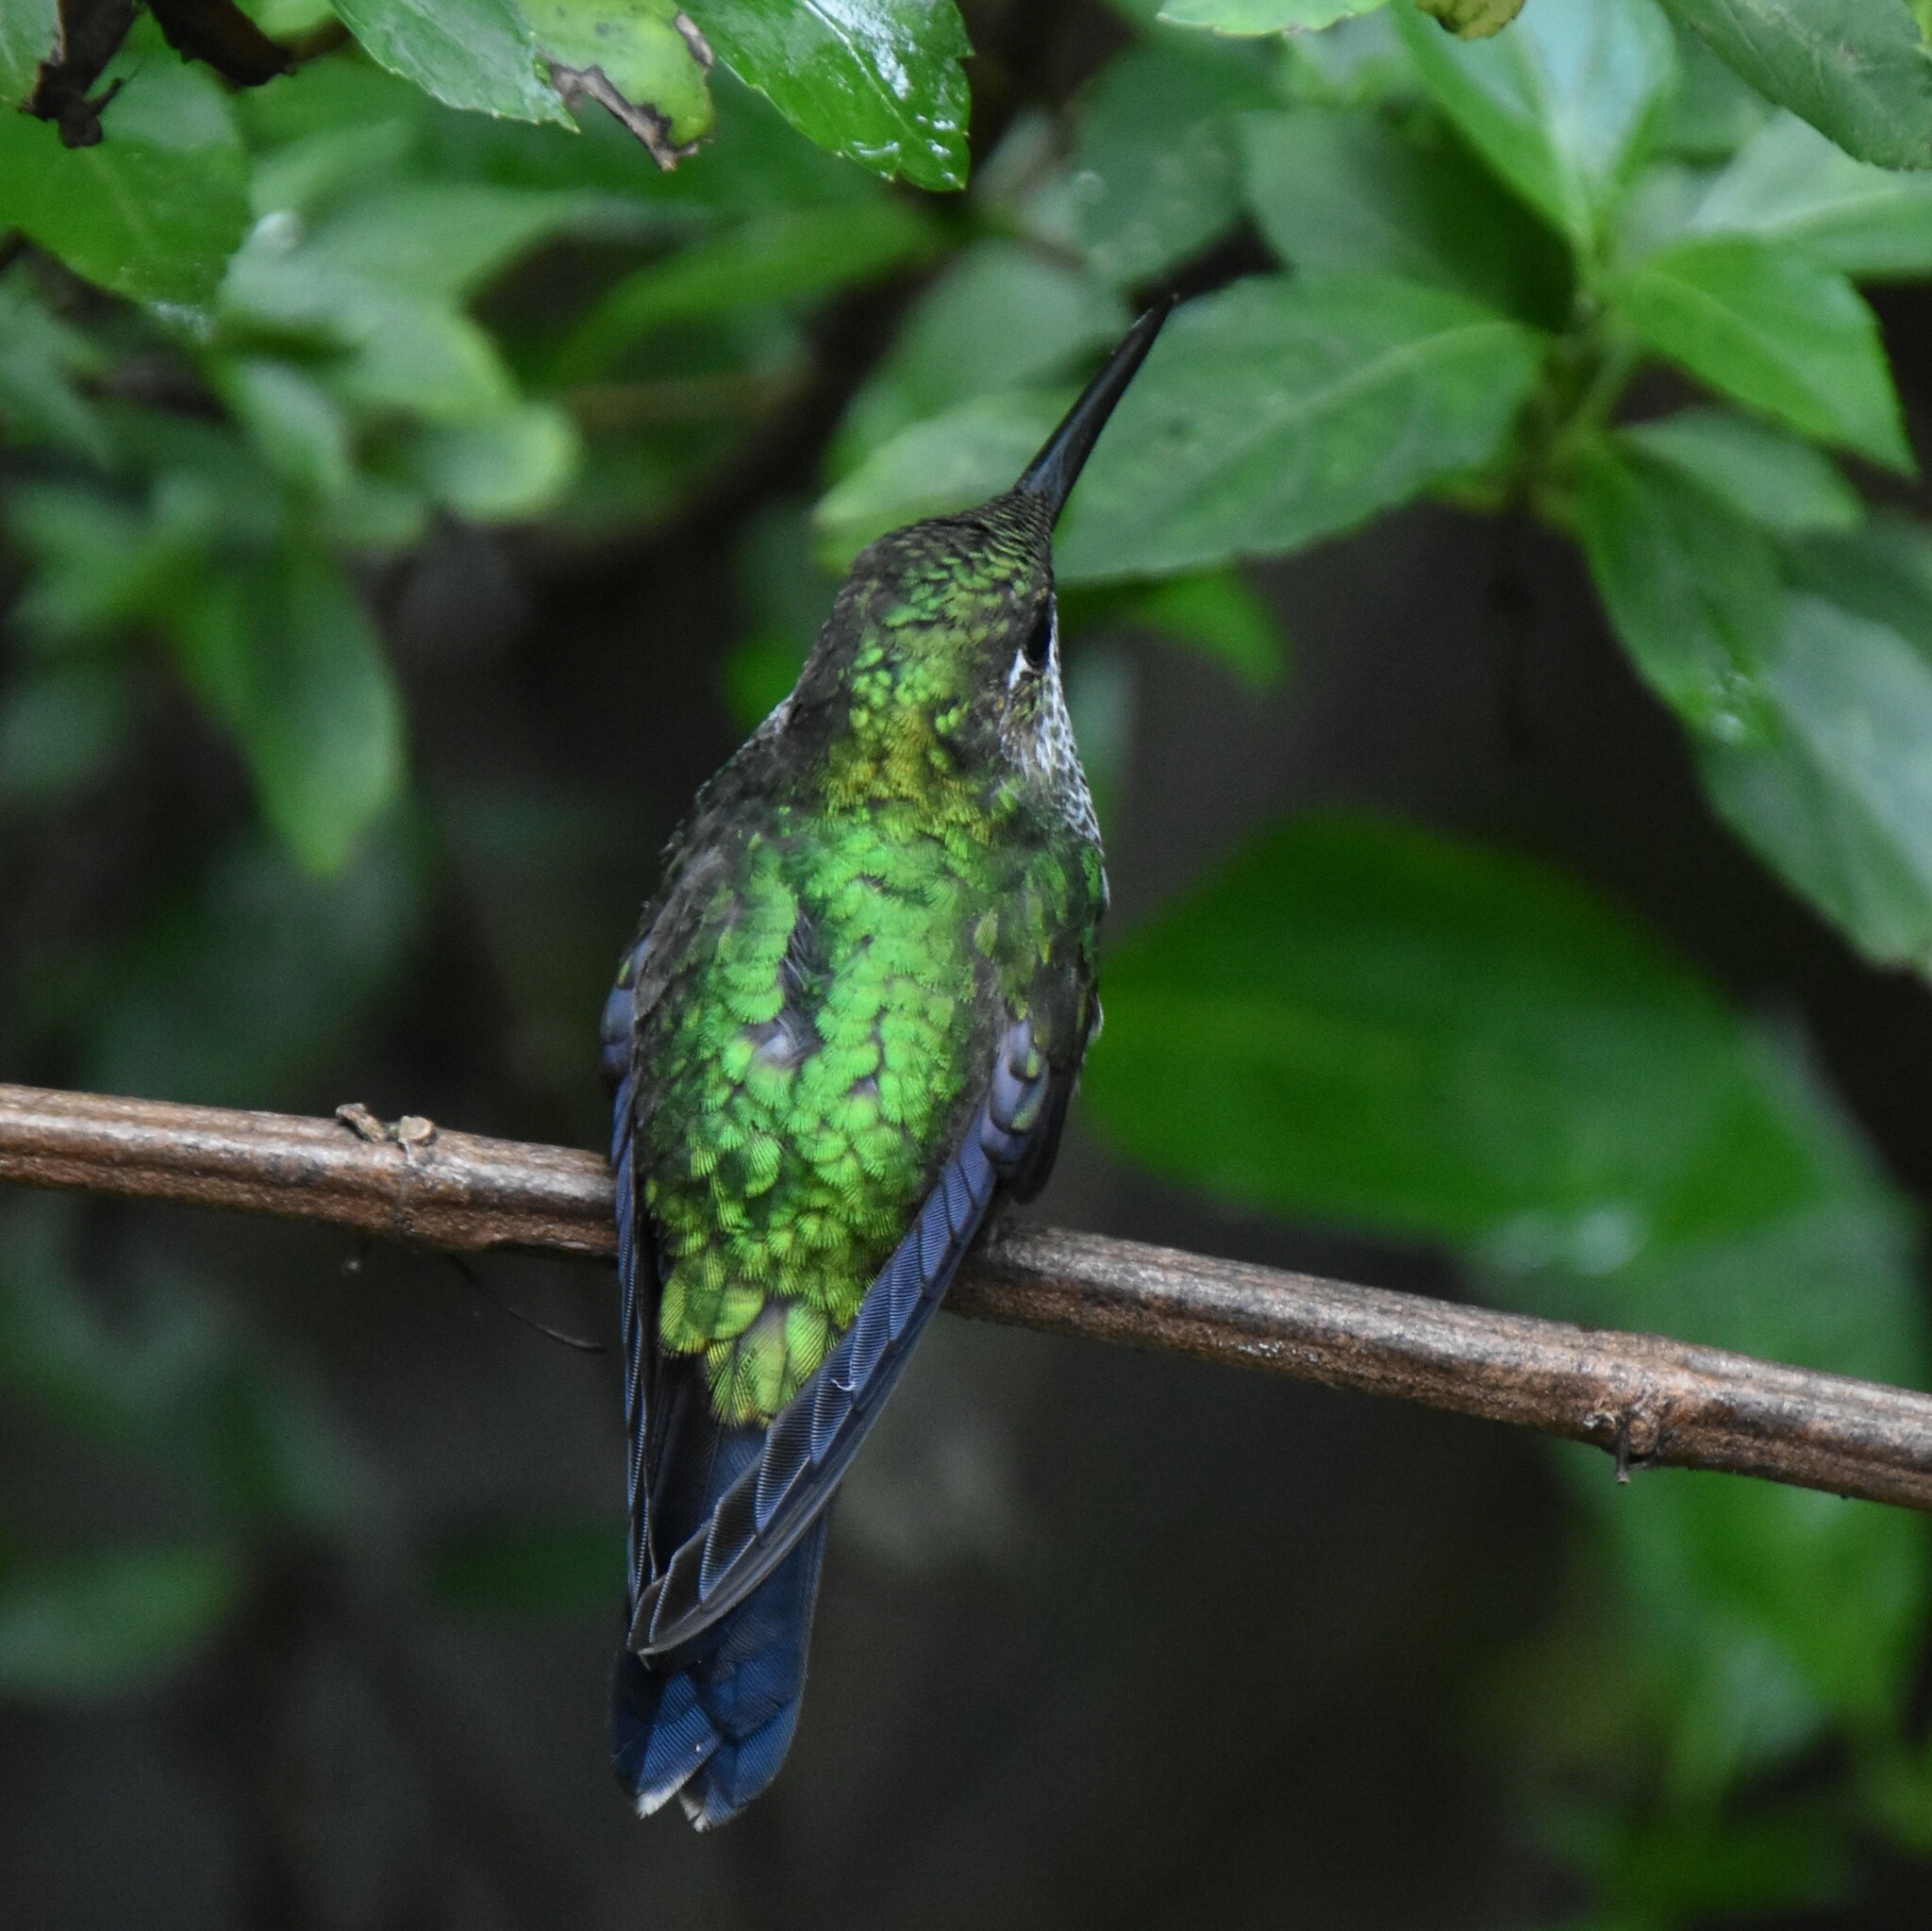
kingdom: Animalia
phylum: Chordata
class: Aves
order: Apodiformes
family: Trochilidae
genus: Heliodoxa
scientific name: Heliodoxa jacula
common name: Green-crowned brilliant
